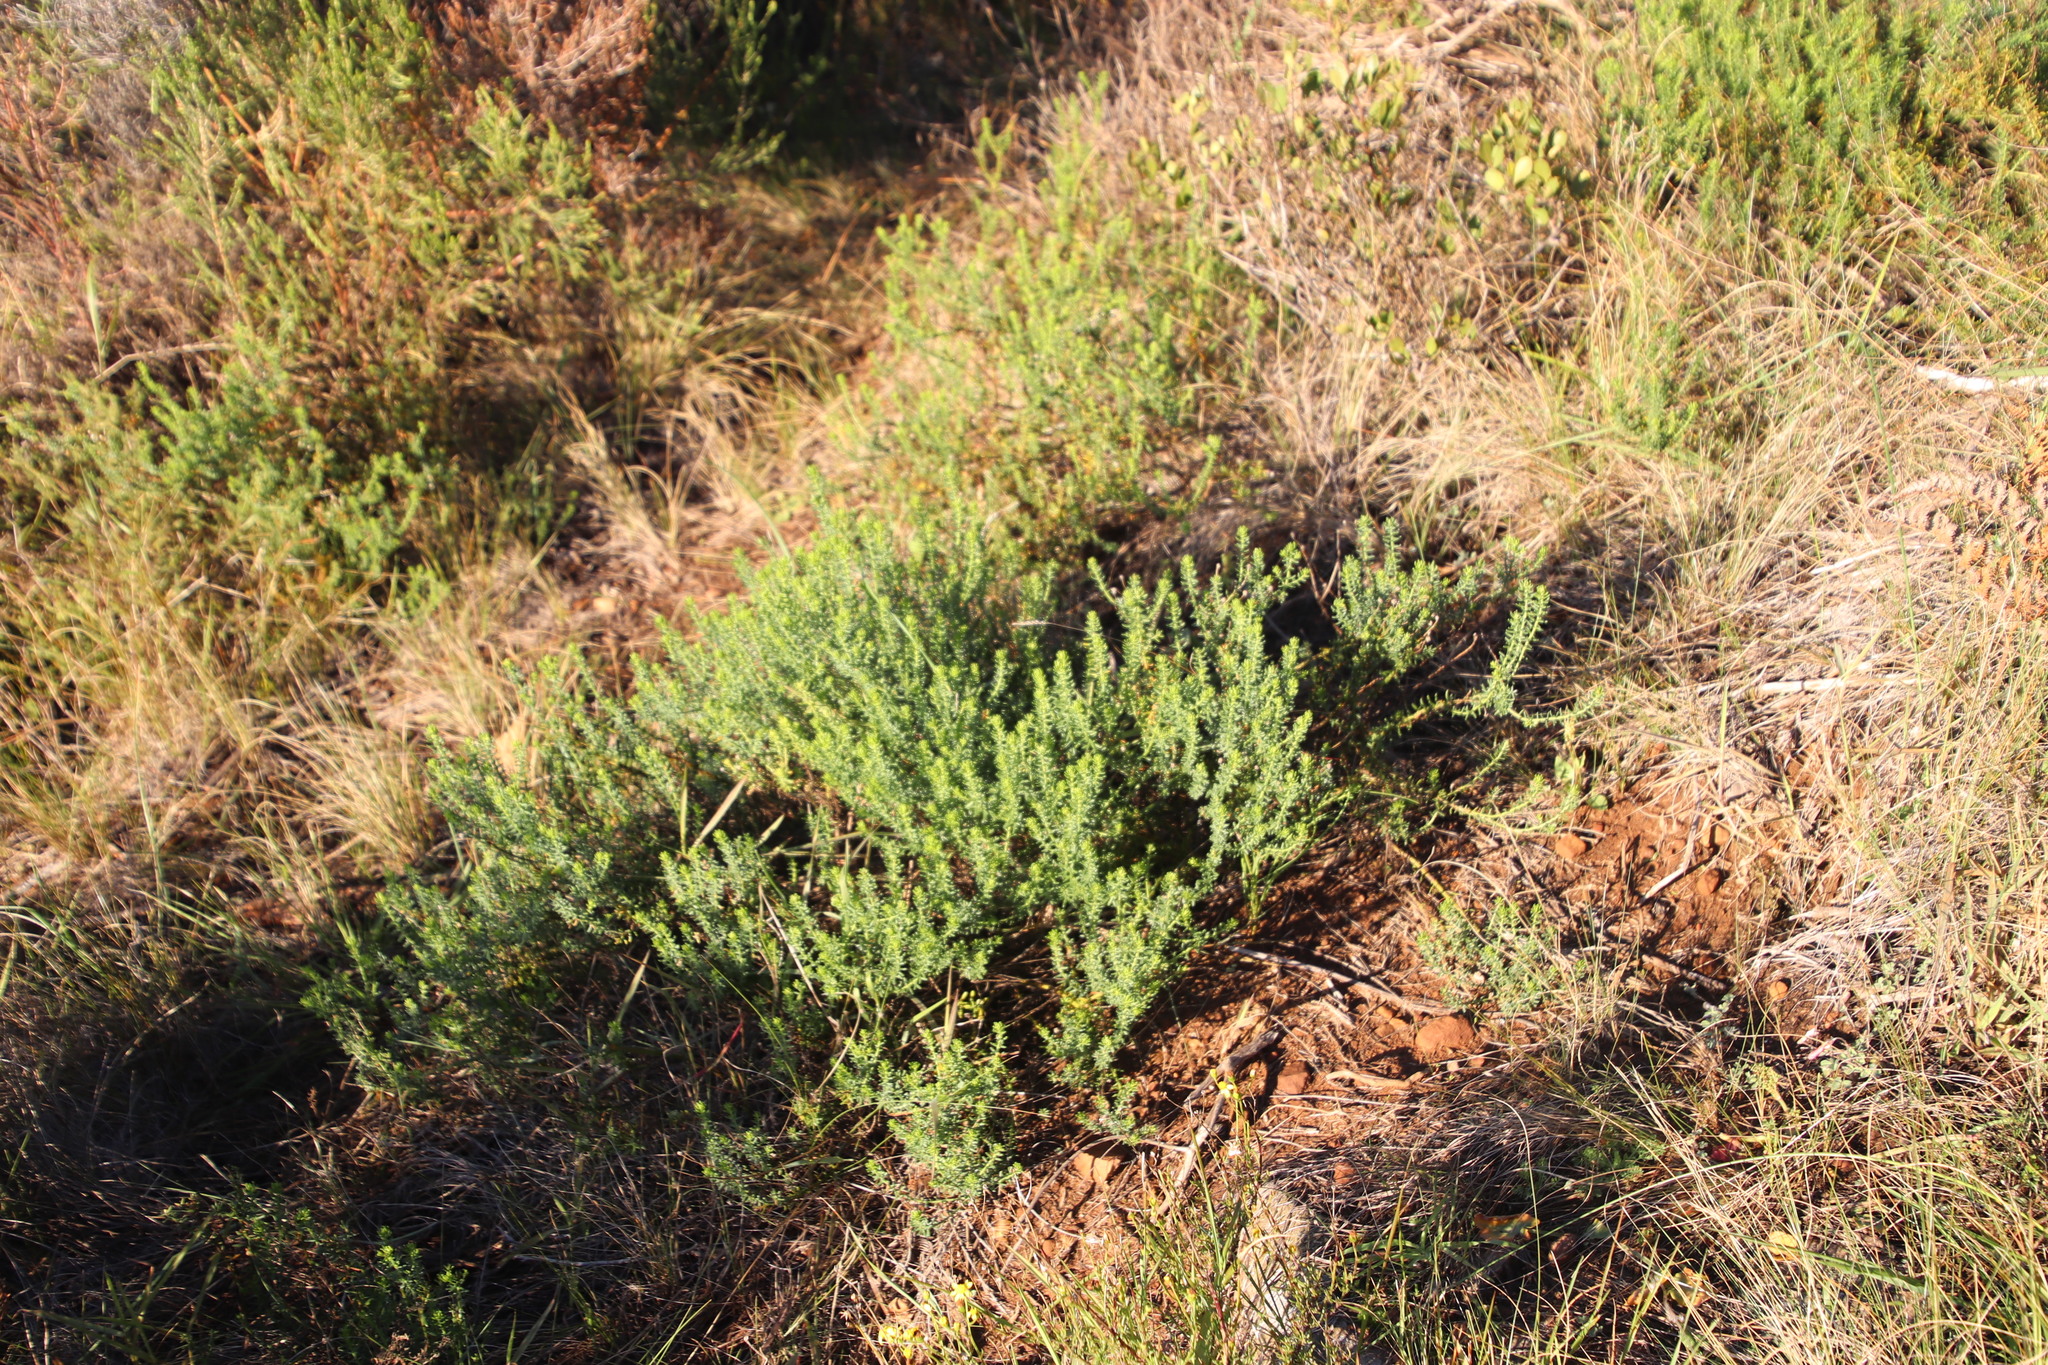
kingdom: Plantae
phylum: Tracheophyta
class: Magnoliopsida
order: Asterales
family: Asteraceae
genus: Chrysocoma
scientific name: Chrysocoma cernua
